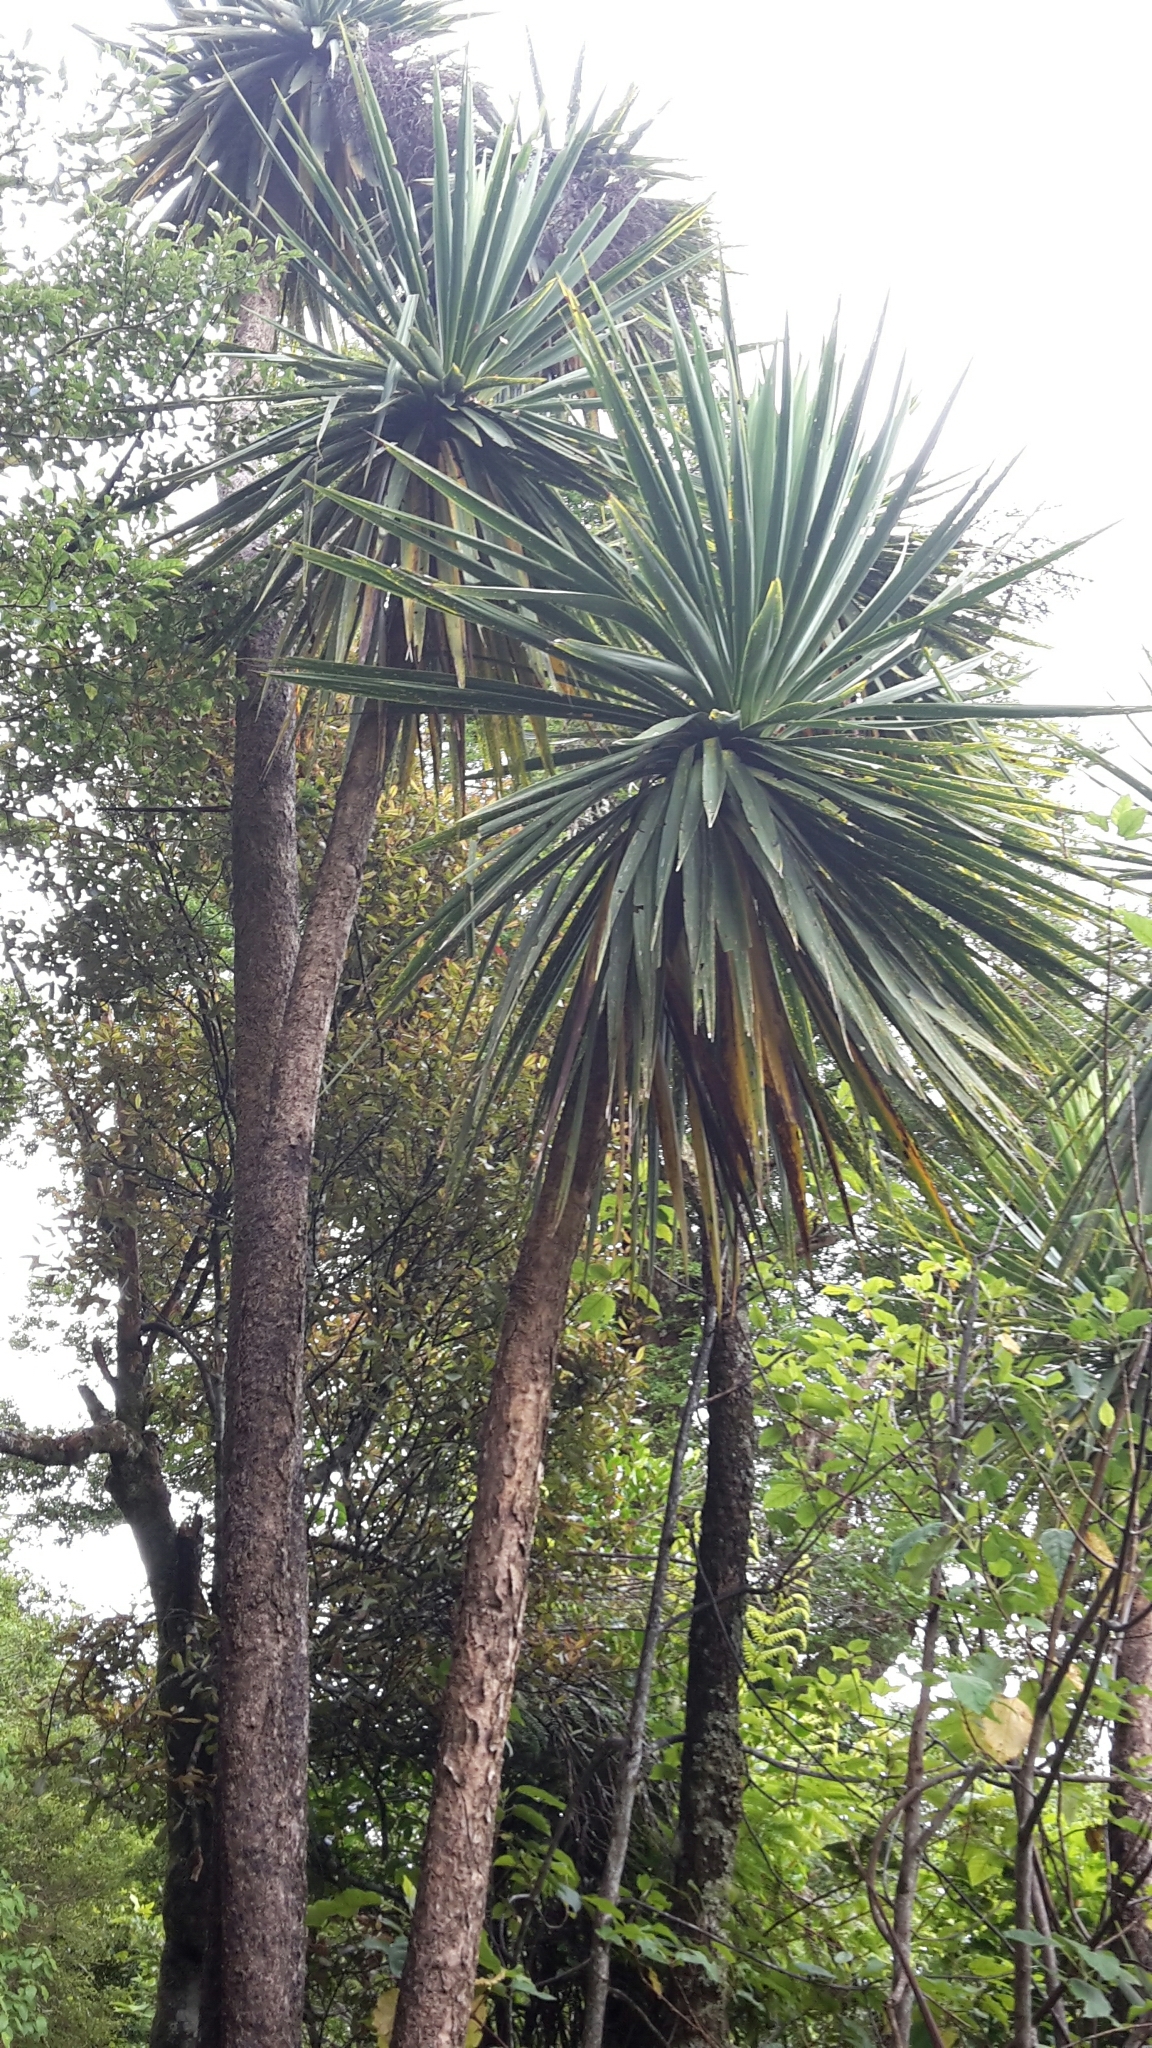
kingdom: Plantae
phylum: Tracheophyta
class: Liliopsida
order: Asparagales
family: Asparagaceae
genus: Cordyline
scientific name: Cordyline australis
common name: Cabbage-palm
